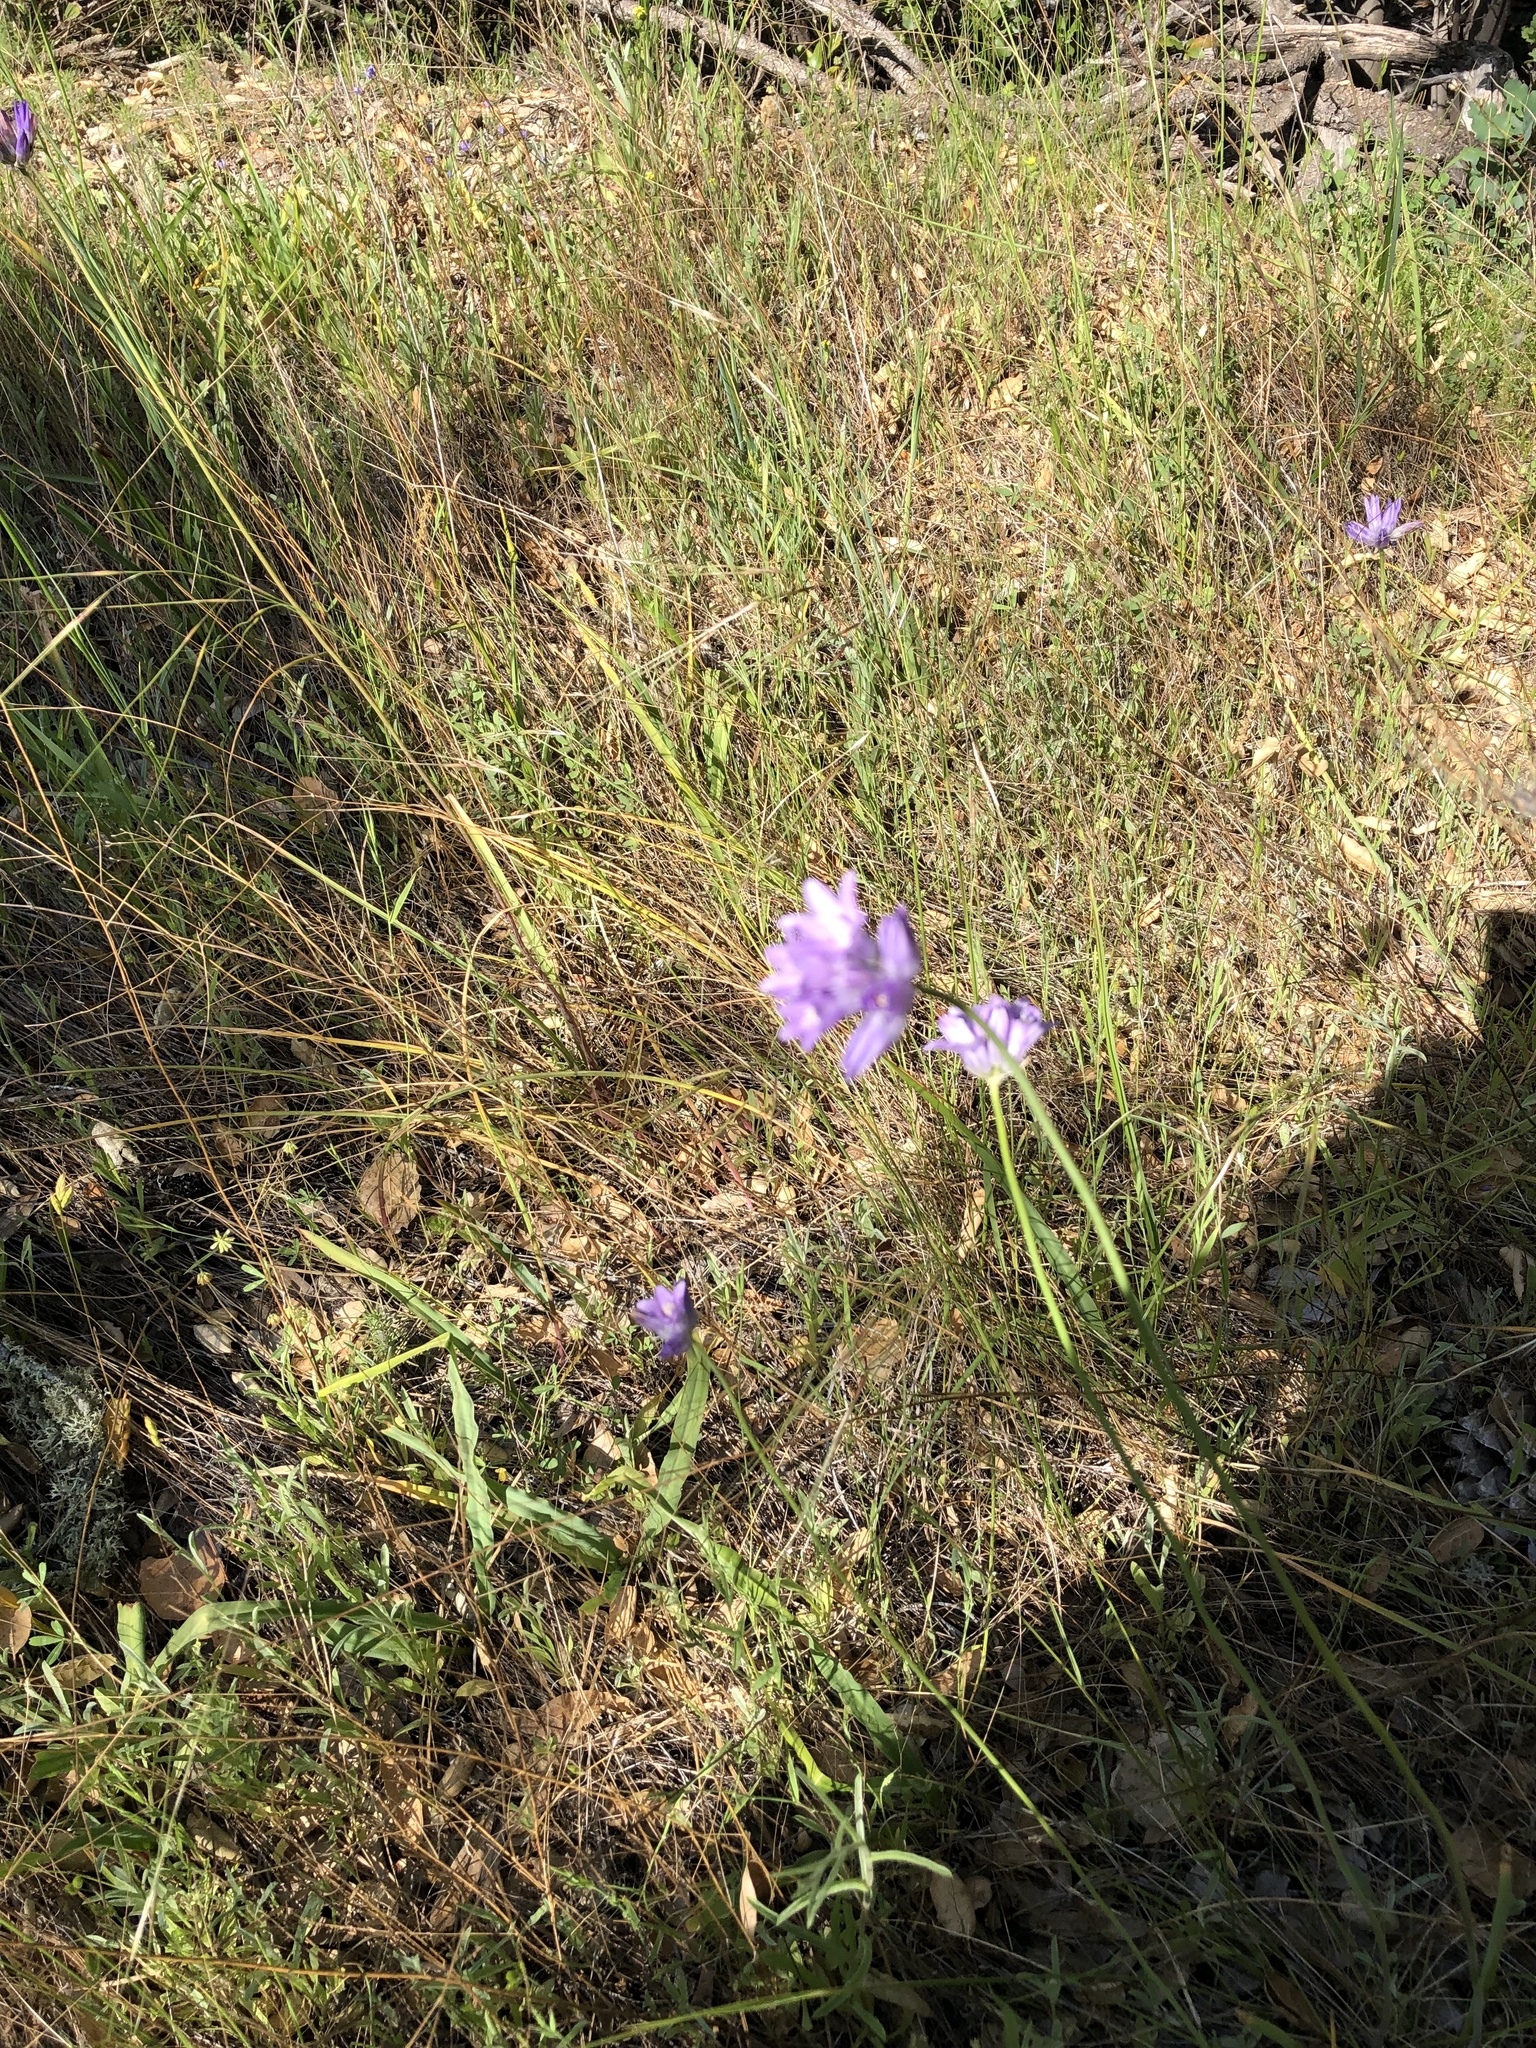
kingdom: Plantae
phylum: Tracheophyta
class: Liliopsida
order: Asparagales
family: Asparagaceae
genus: Dipterostemon
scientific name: Dipterostemon capitatus
